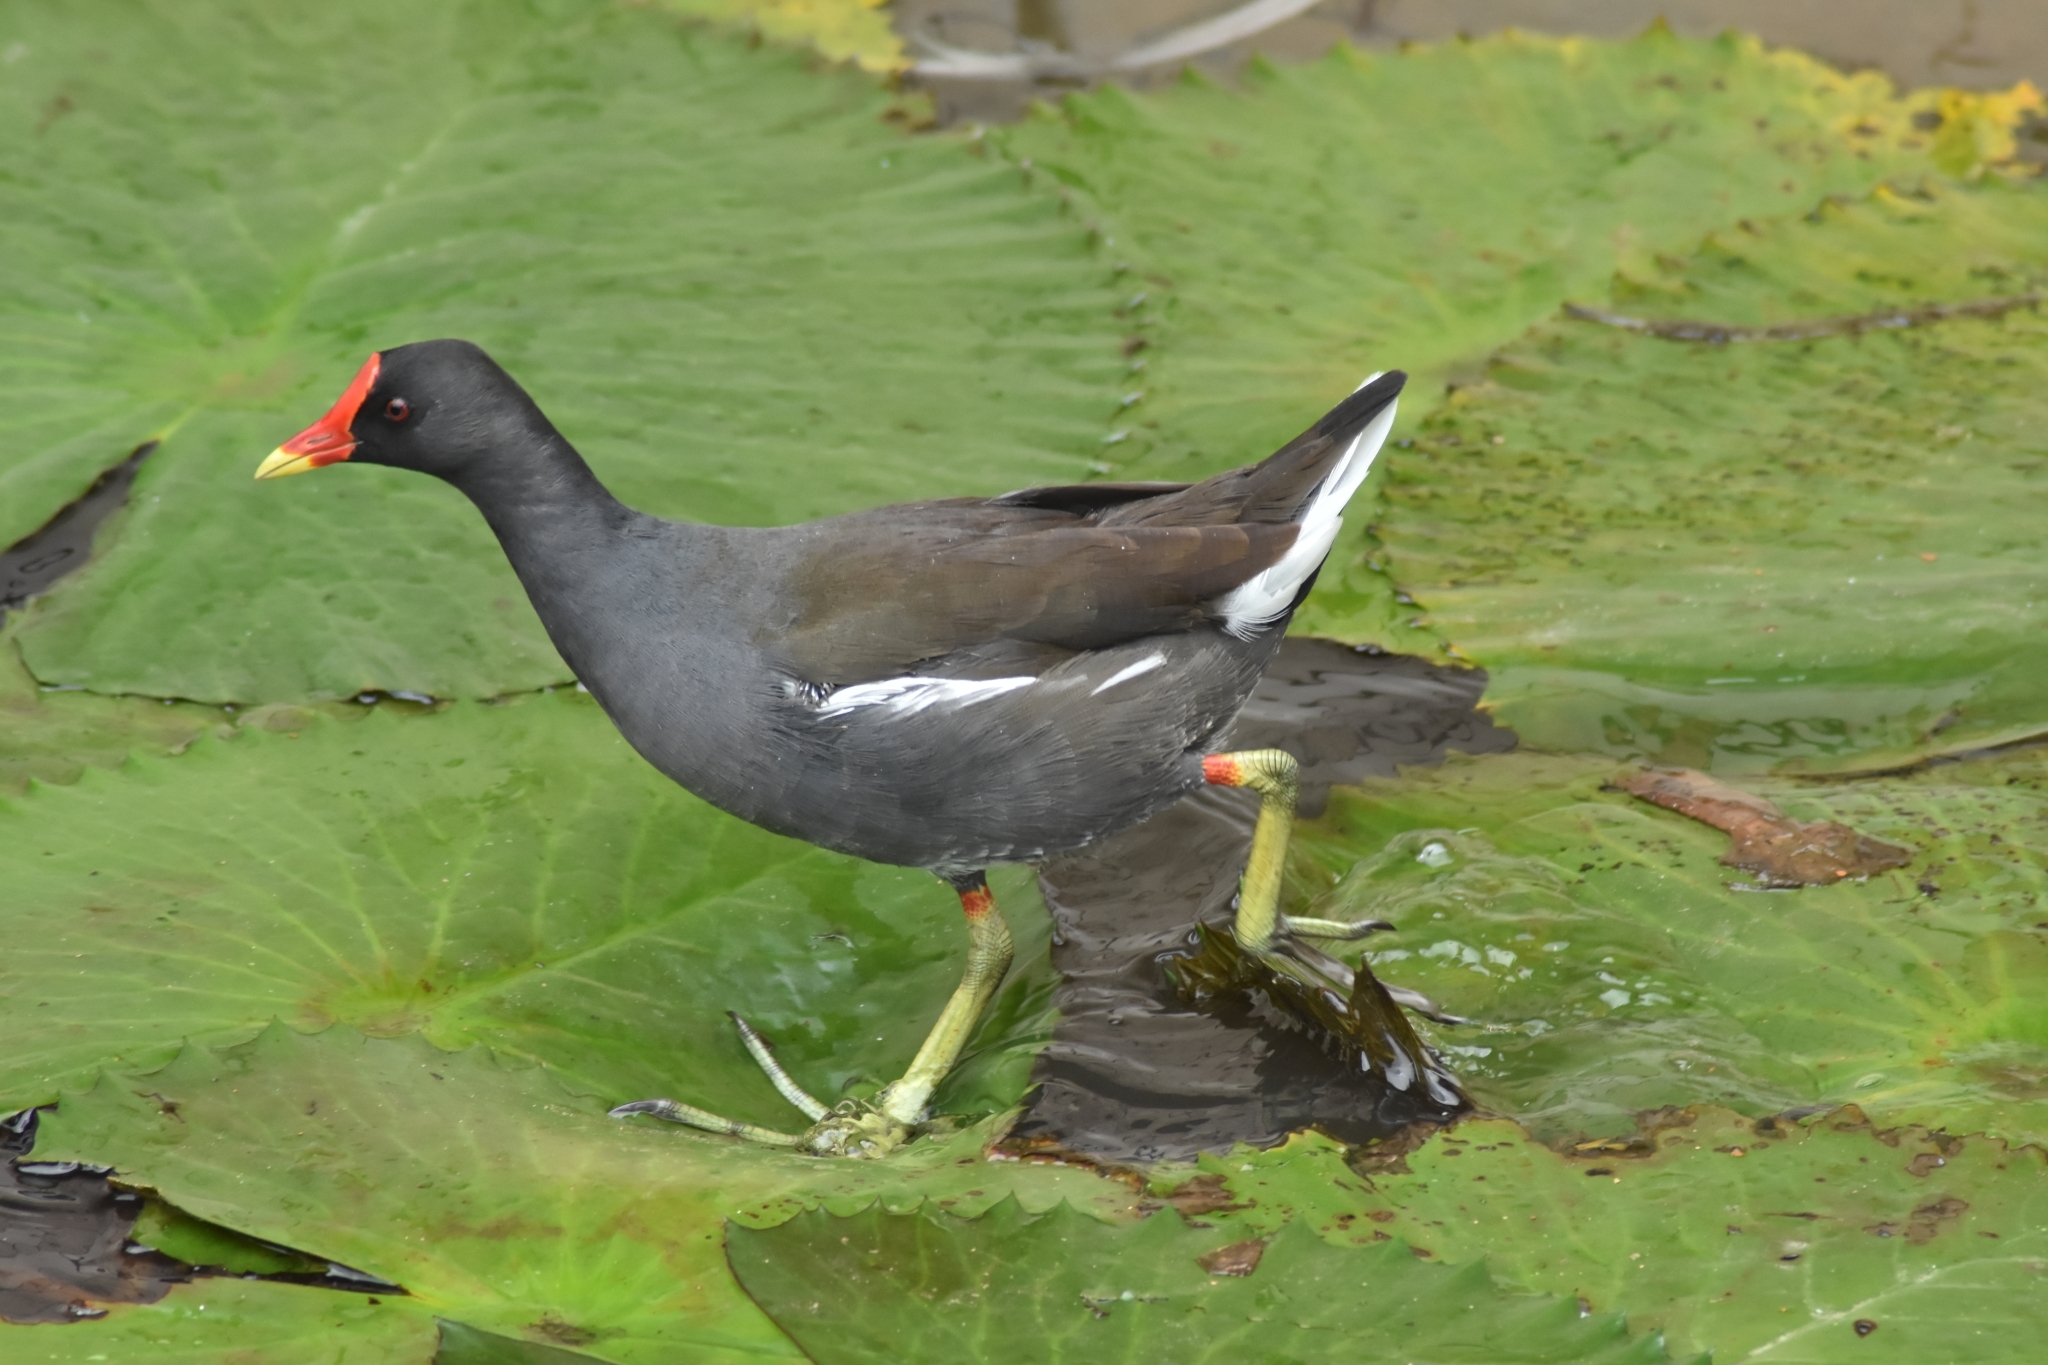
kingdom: Animalia
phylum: Chordata
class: Aves
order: Gruiformes
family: Rallidae
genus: Gallinula
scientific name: Gallinula chloropus
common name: Common moorhen
